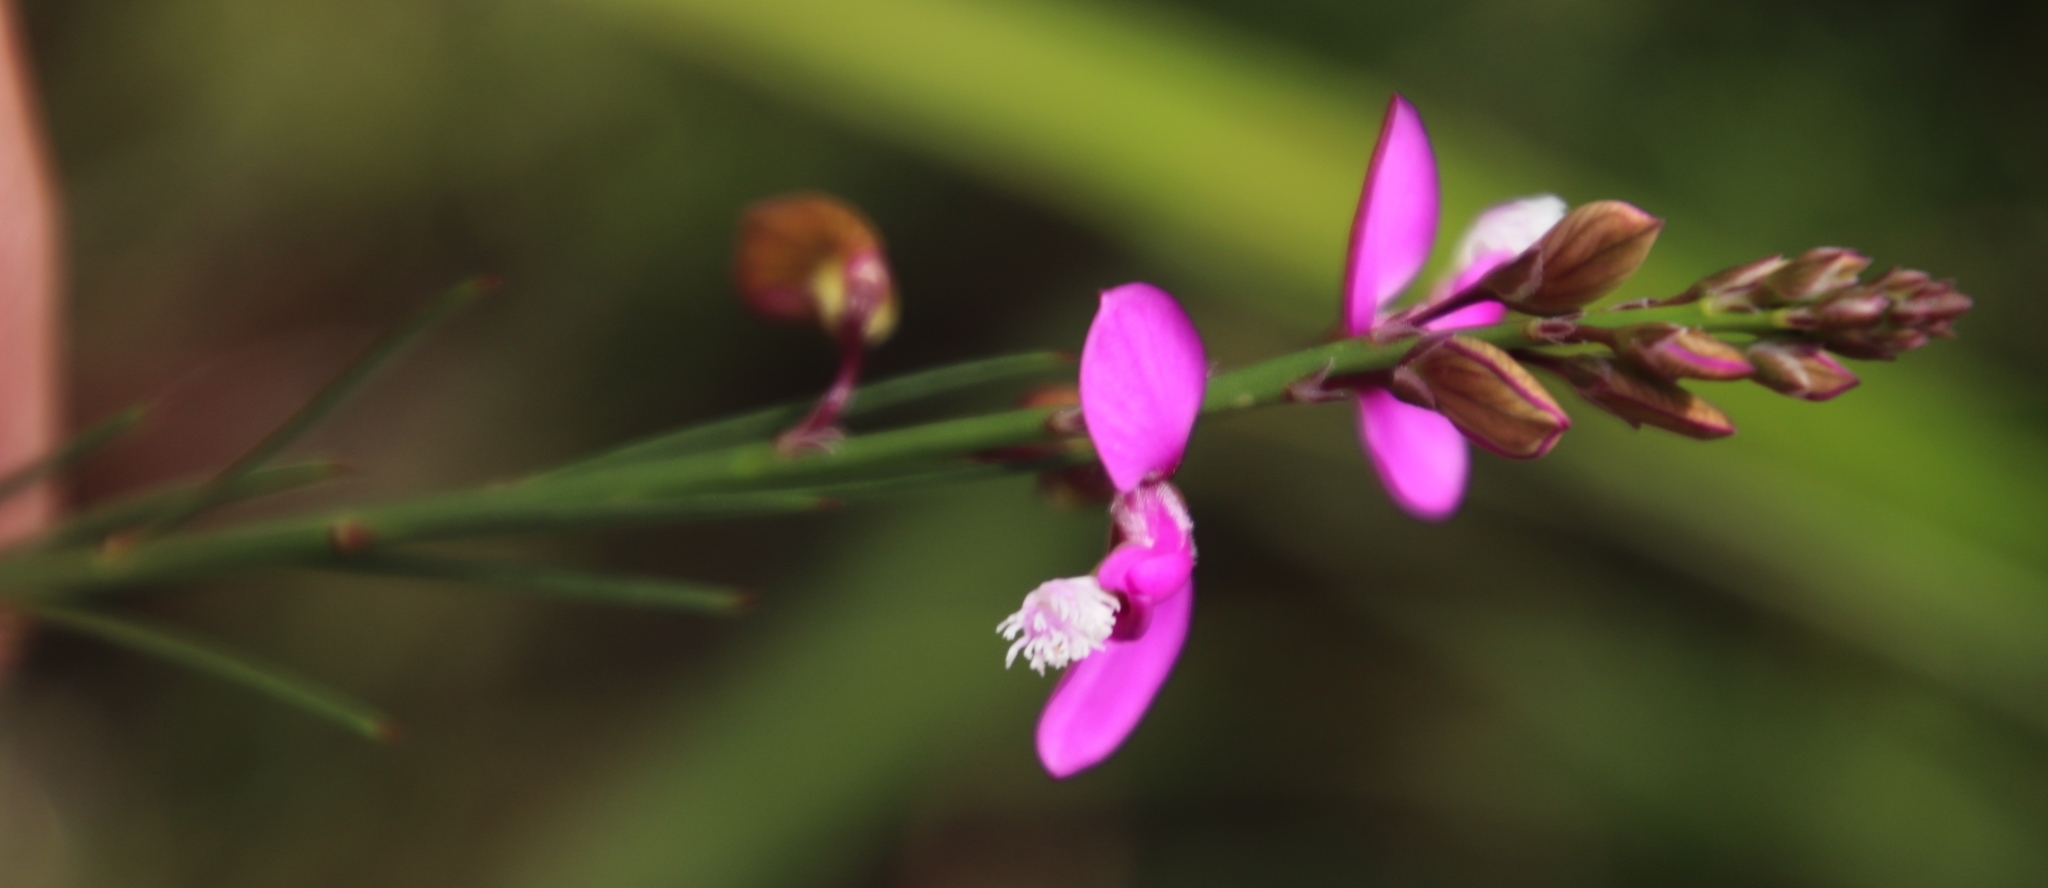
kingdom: Plantae
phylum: Tracheophyta
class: Magnoliopsida
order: Fabales
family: Polygalaceae
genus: Polygala
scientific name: Polygala garcini
